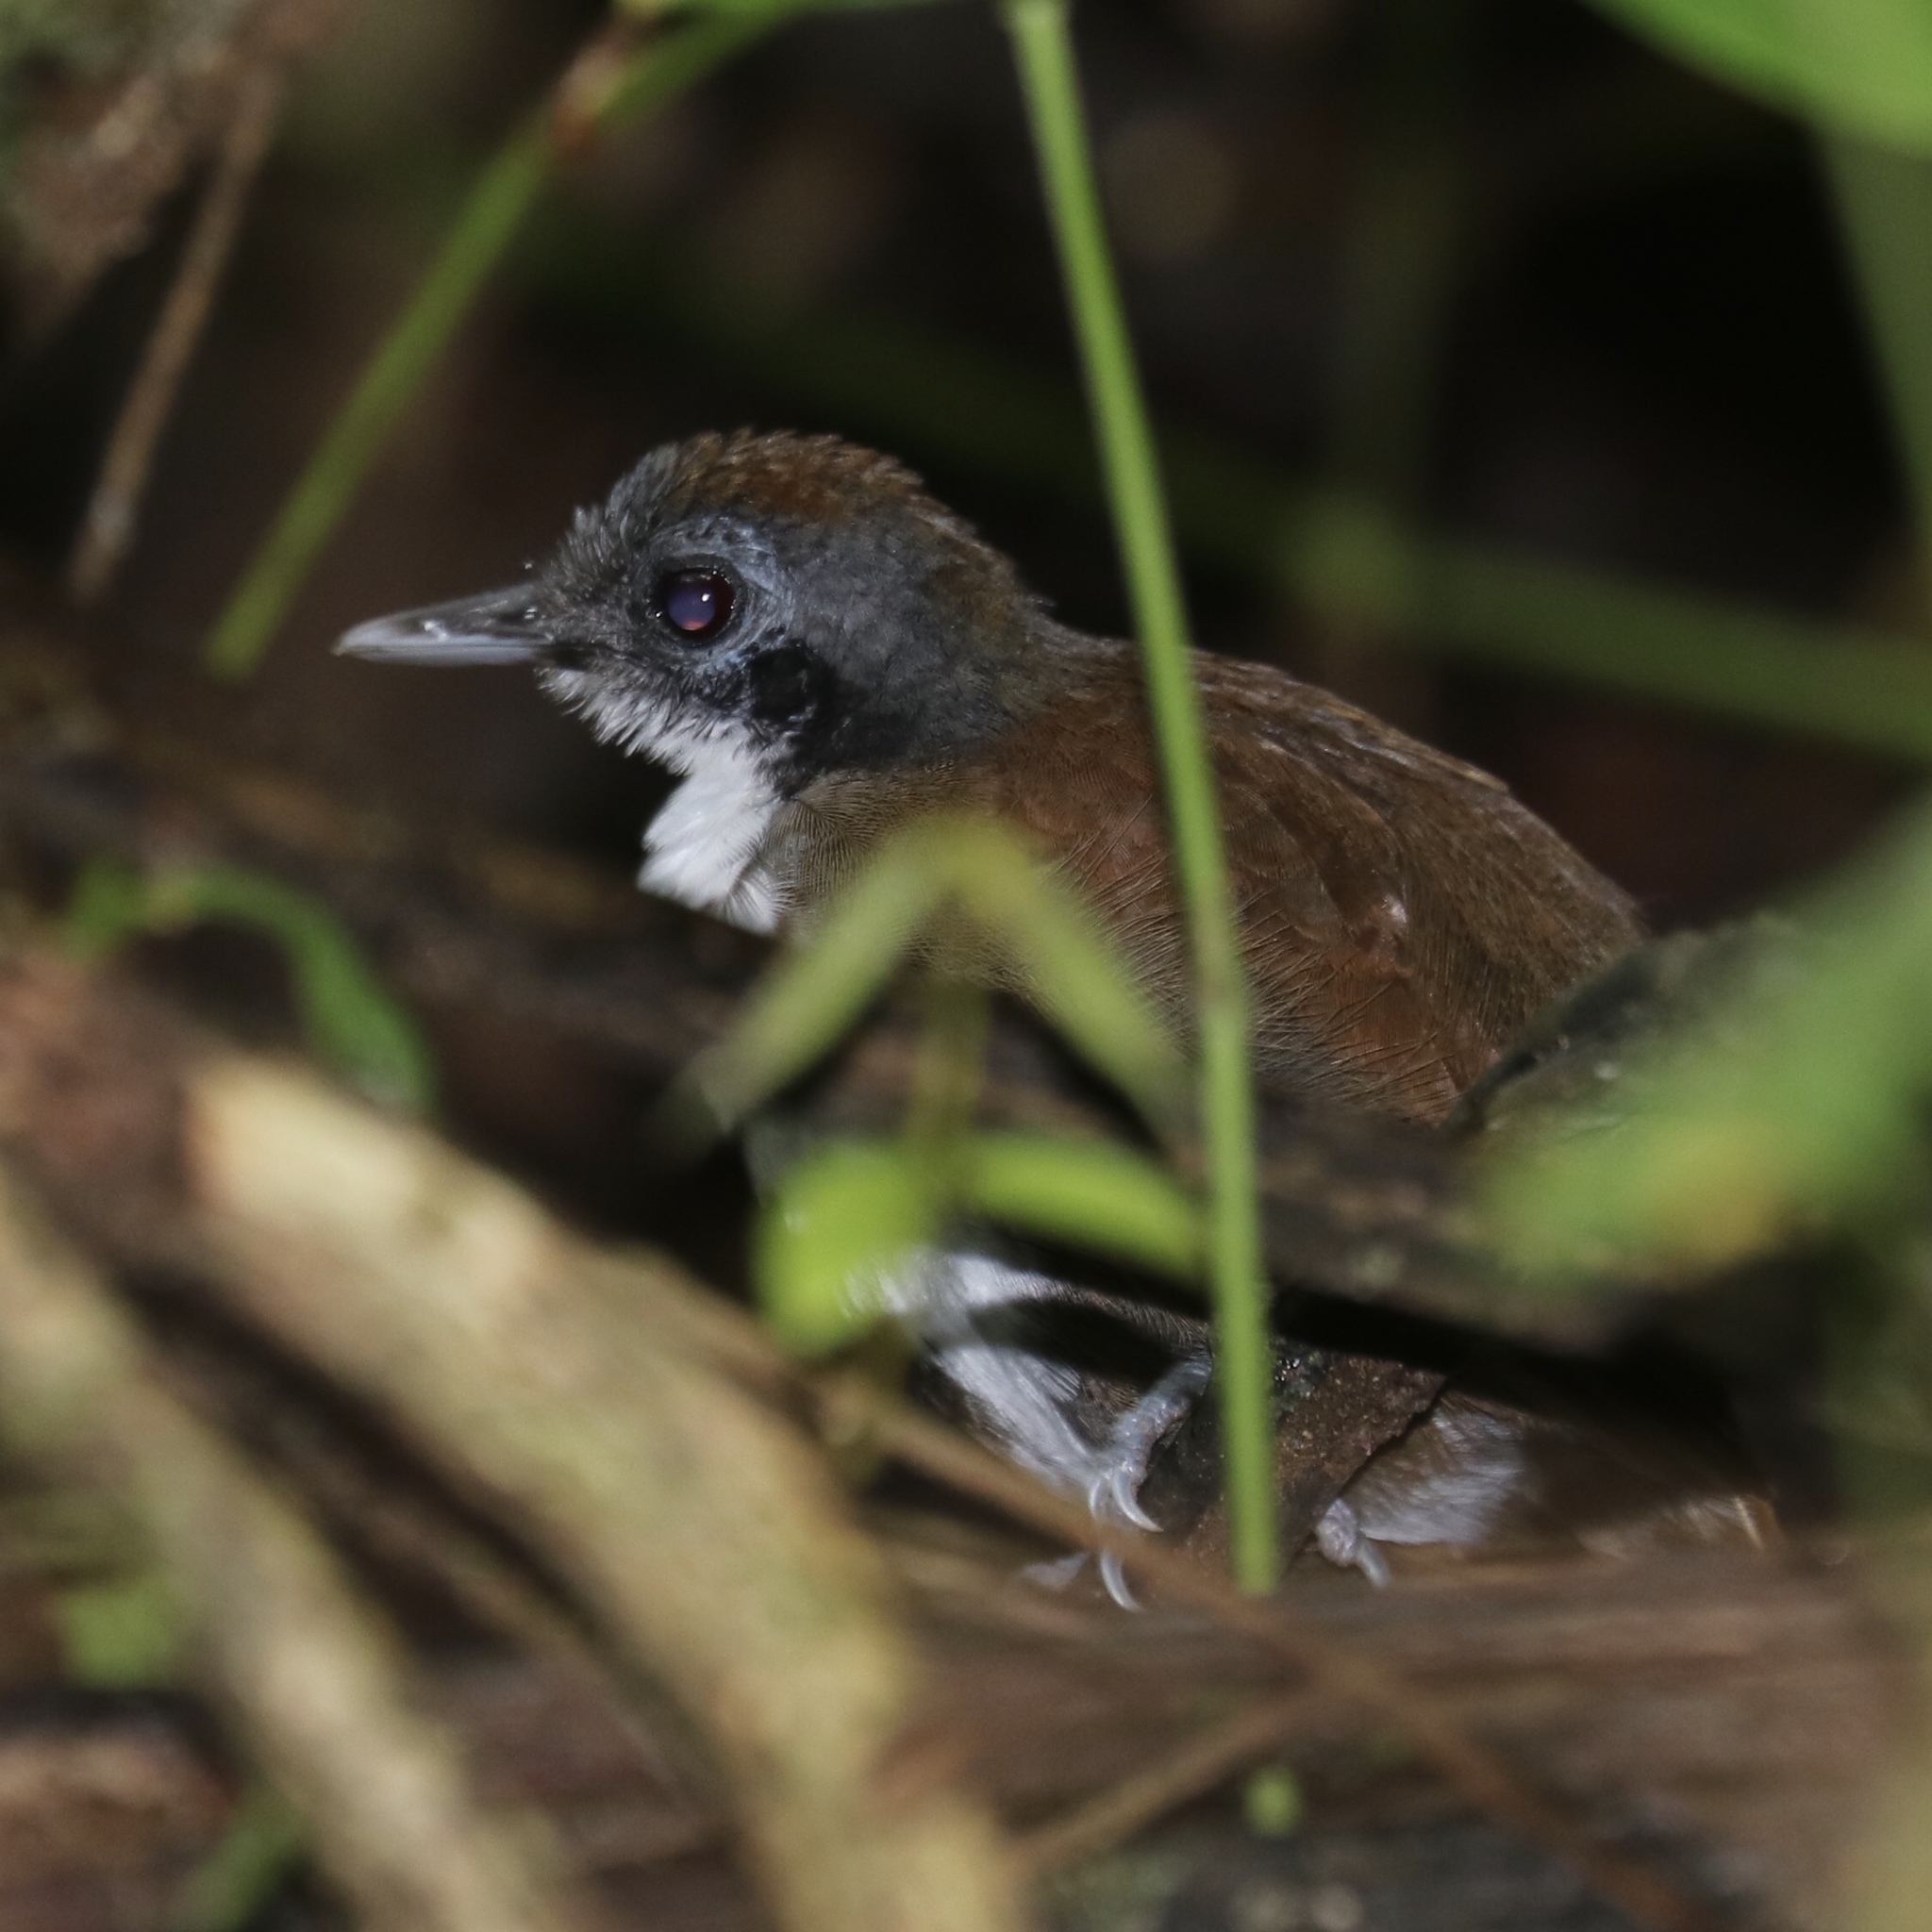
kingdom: Animalia
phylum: Chordata
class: Aves
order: Passeriformes
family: Thamnophilidae
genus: Gymnopithys
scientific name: Gymnopithys leucaspis
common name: White-cheeked antbird
